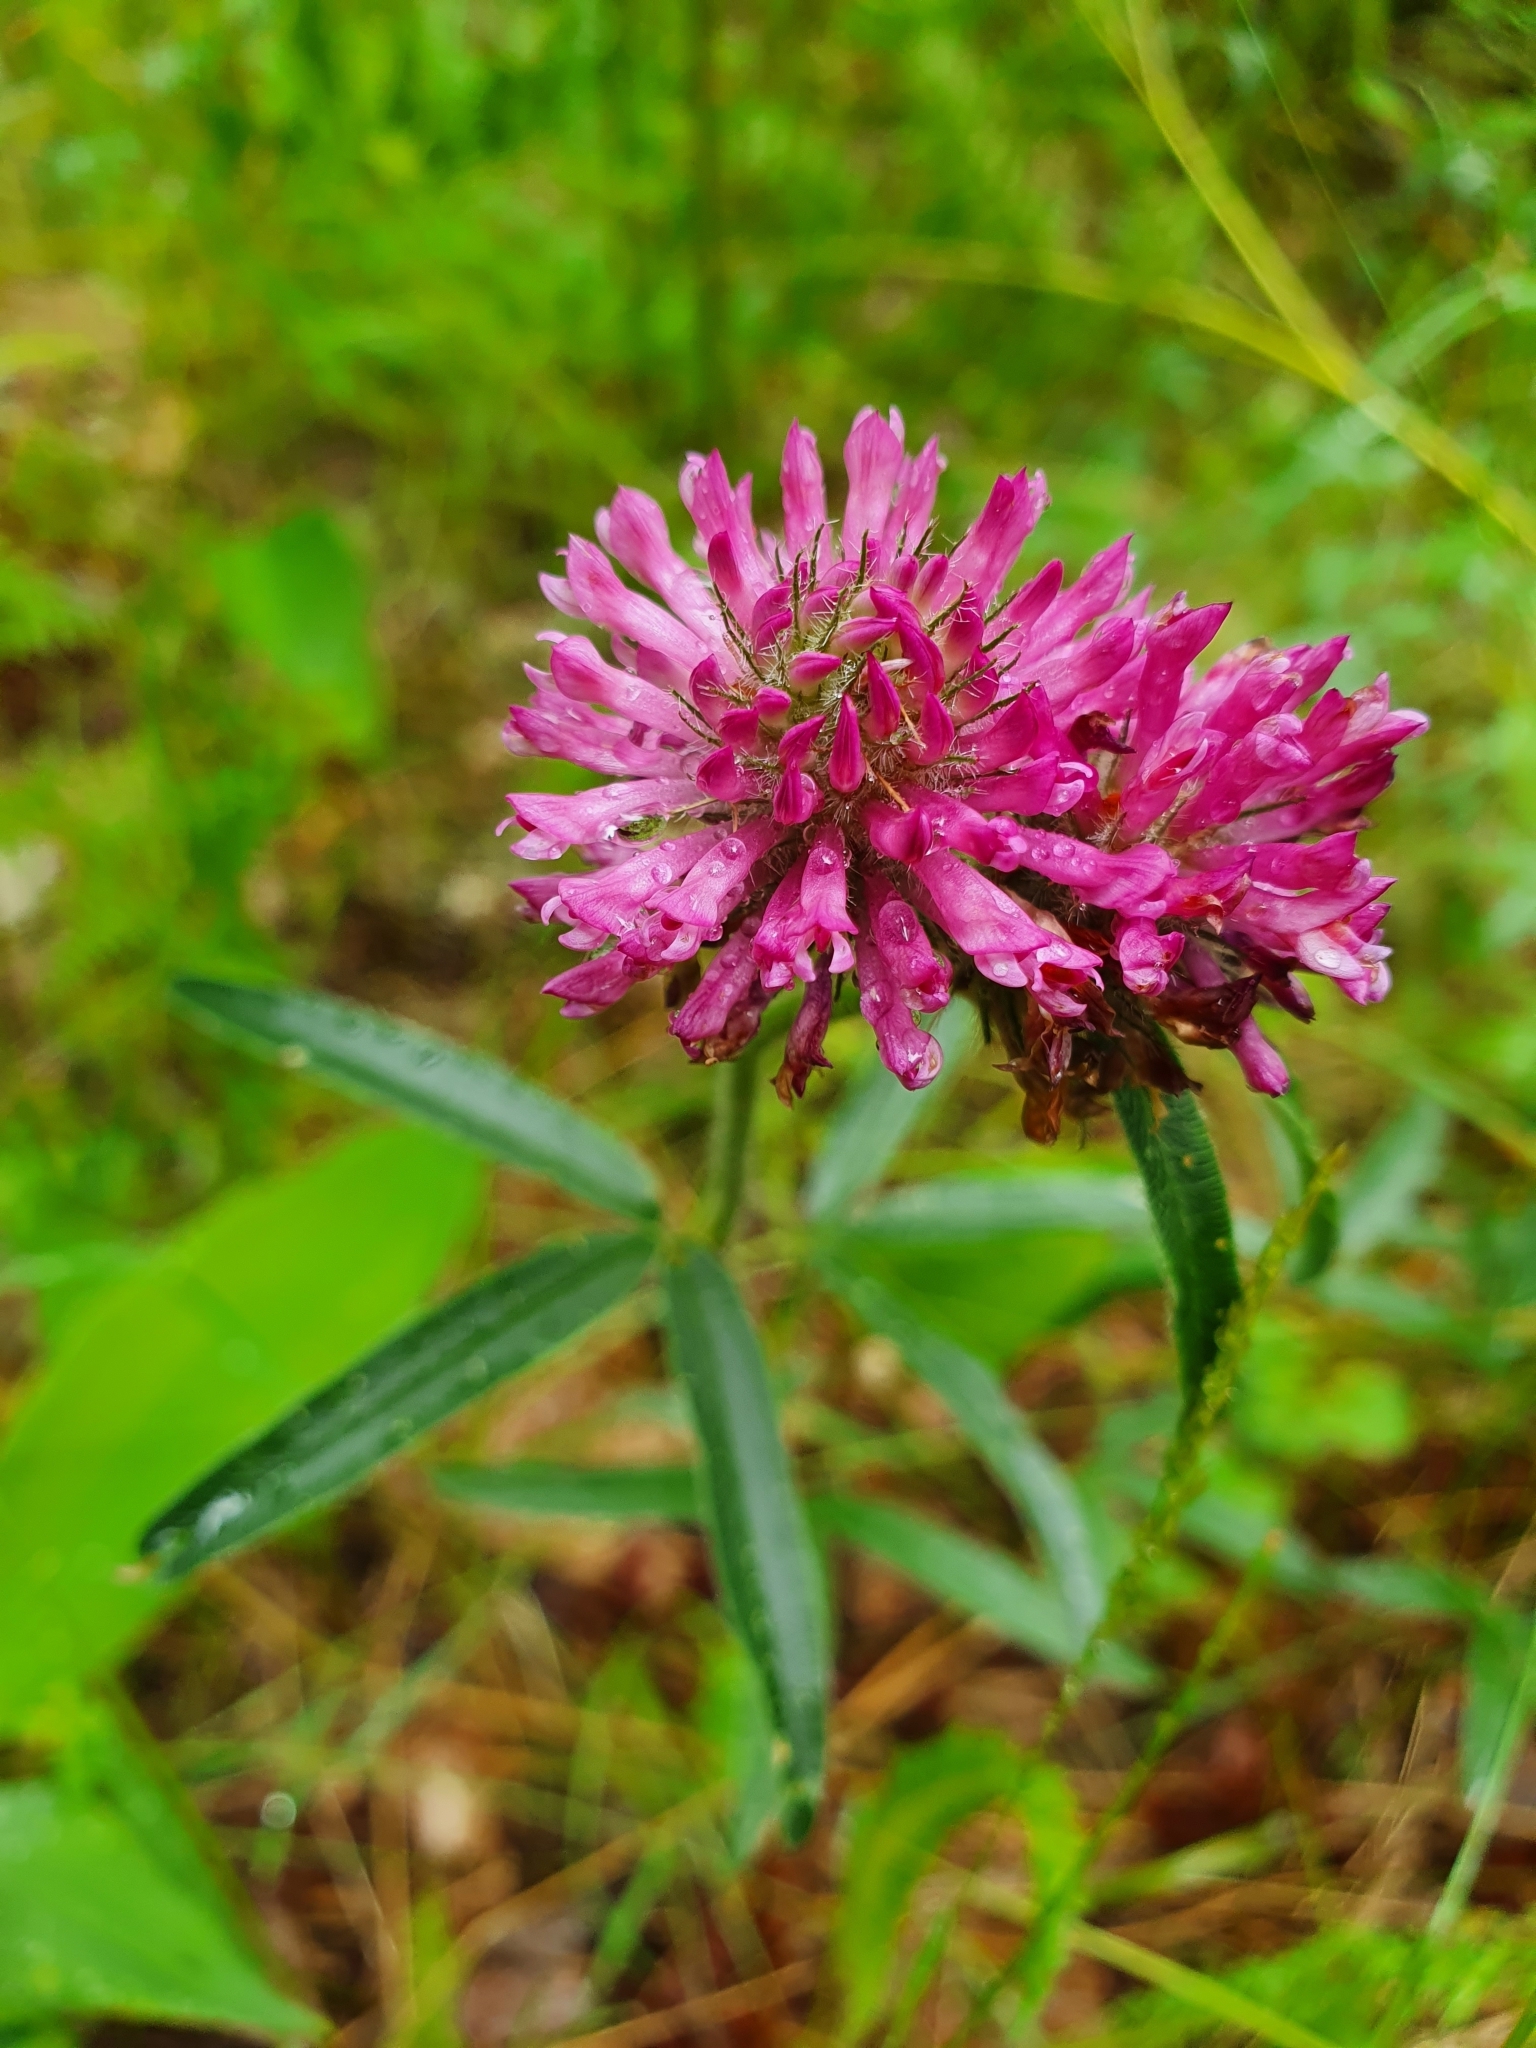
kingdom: Plantae
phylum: Tracheophyta
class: Magnoliopsida
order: Fabales
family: Fabaceae
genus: Trifolium
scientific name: Trifolium alpestre
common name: Owl-head clover
